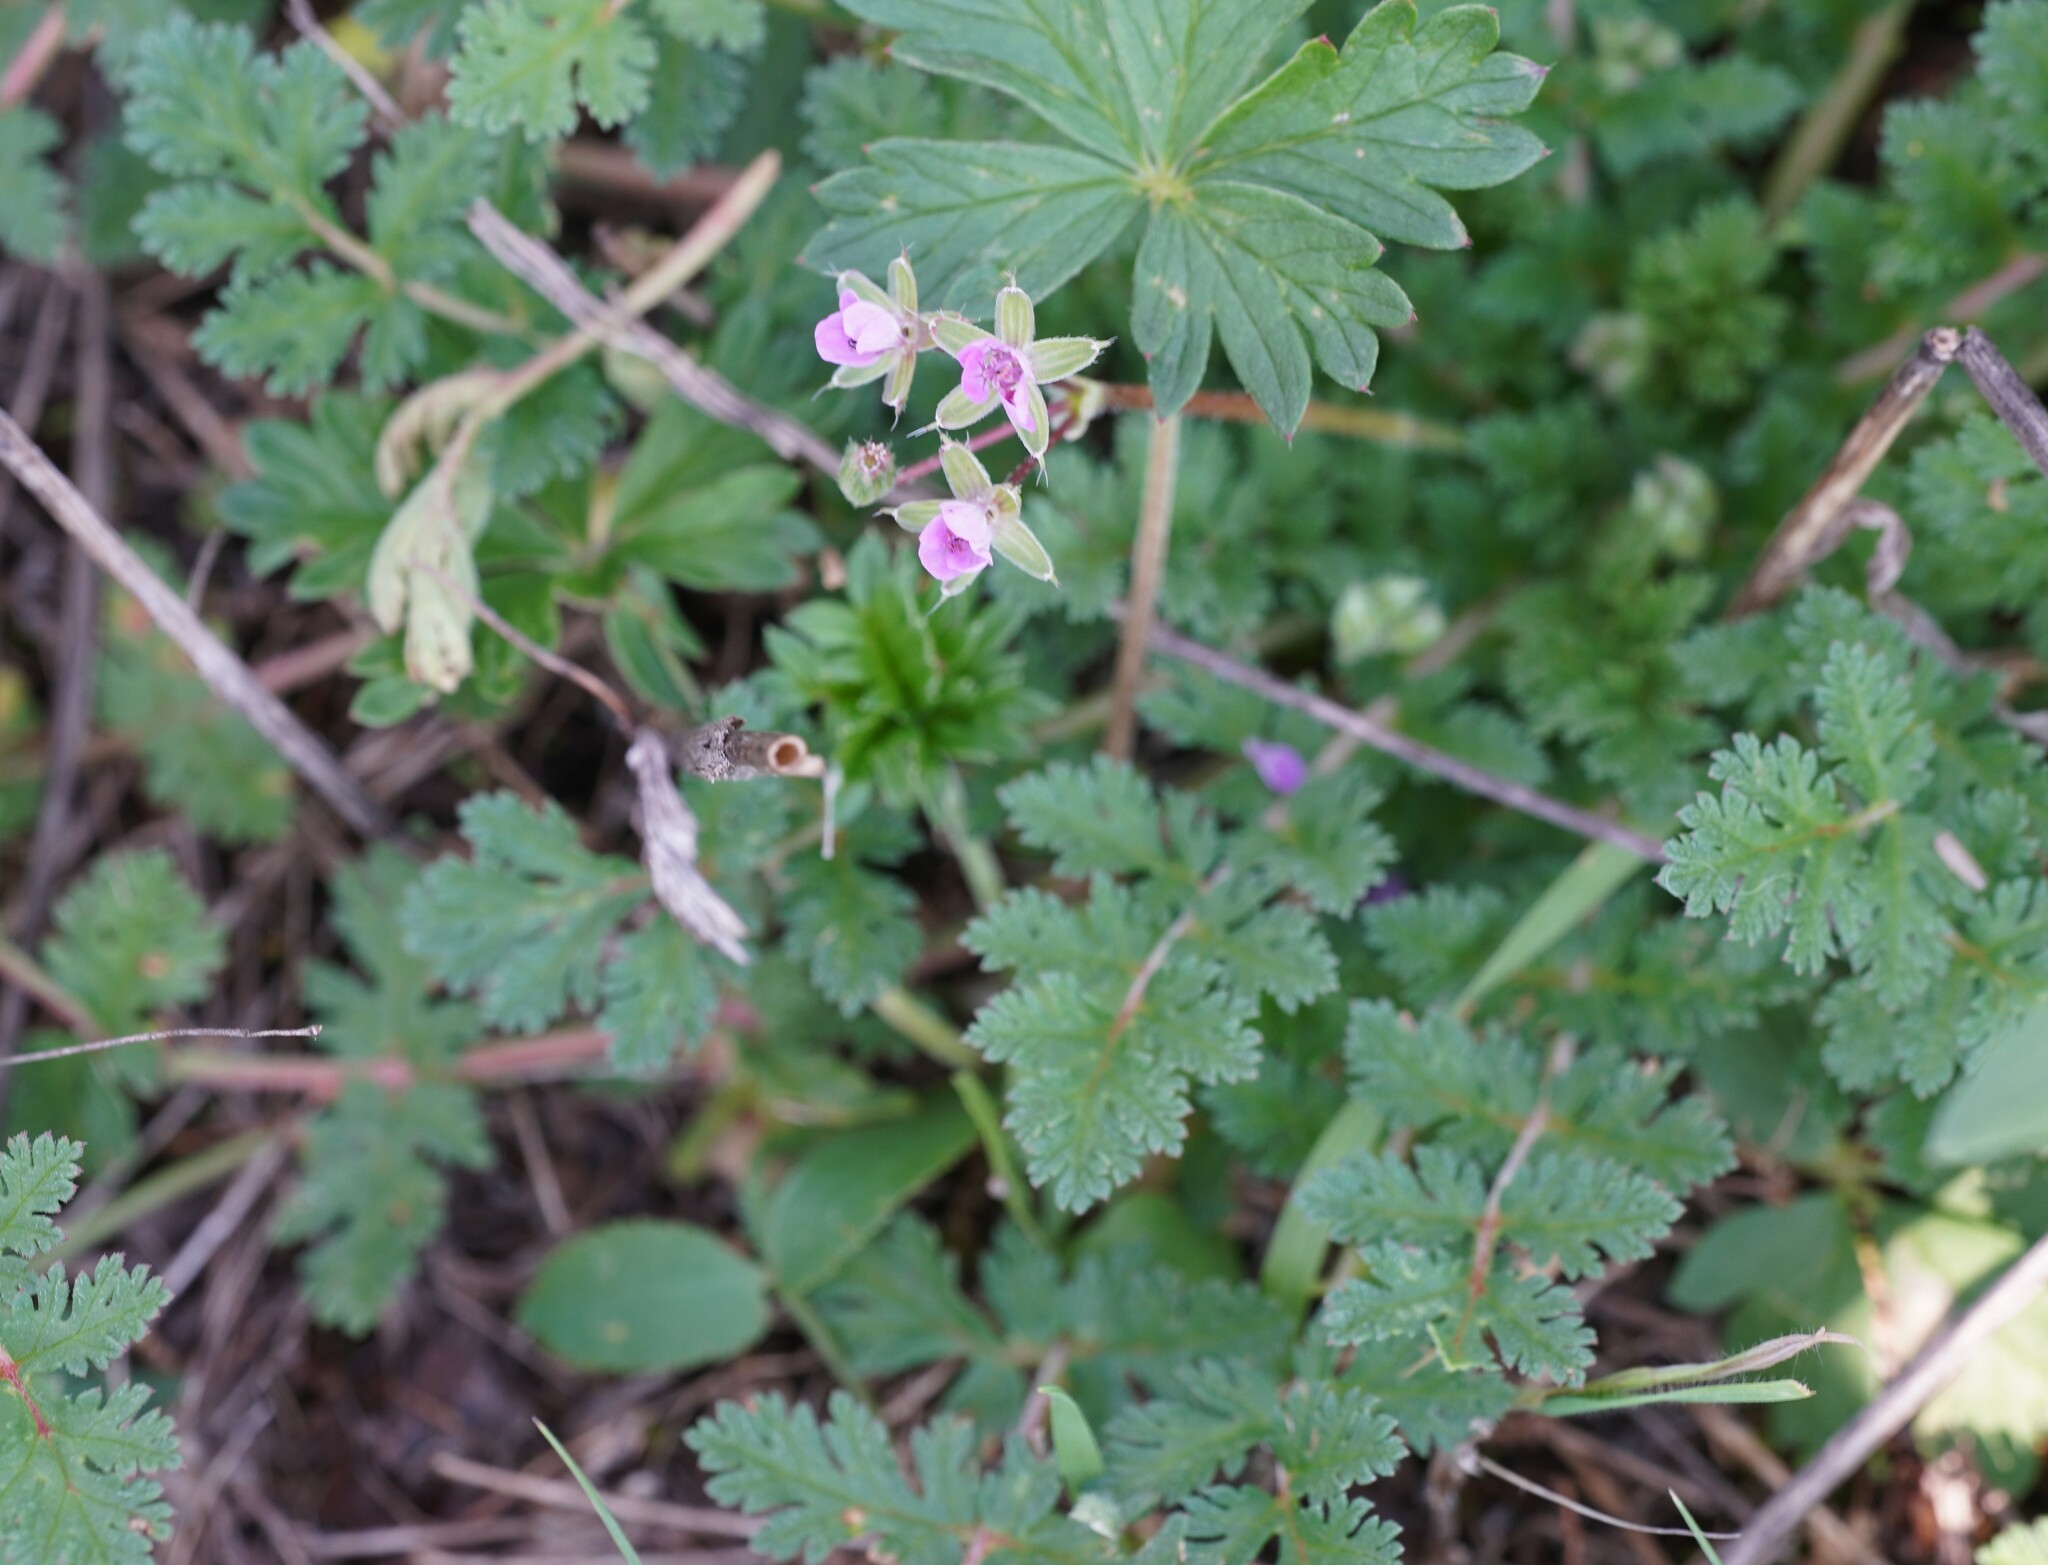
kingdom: Plantae
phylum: Tracheophyta
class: Magnoliopsida
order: Geraniales
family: Geraniaceae
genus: Erodium
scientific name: Erodium cicutarium
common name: Common stork's-bill
